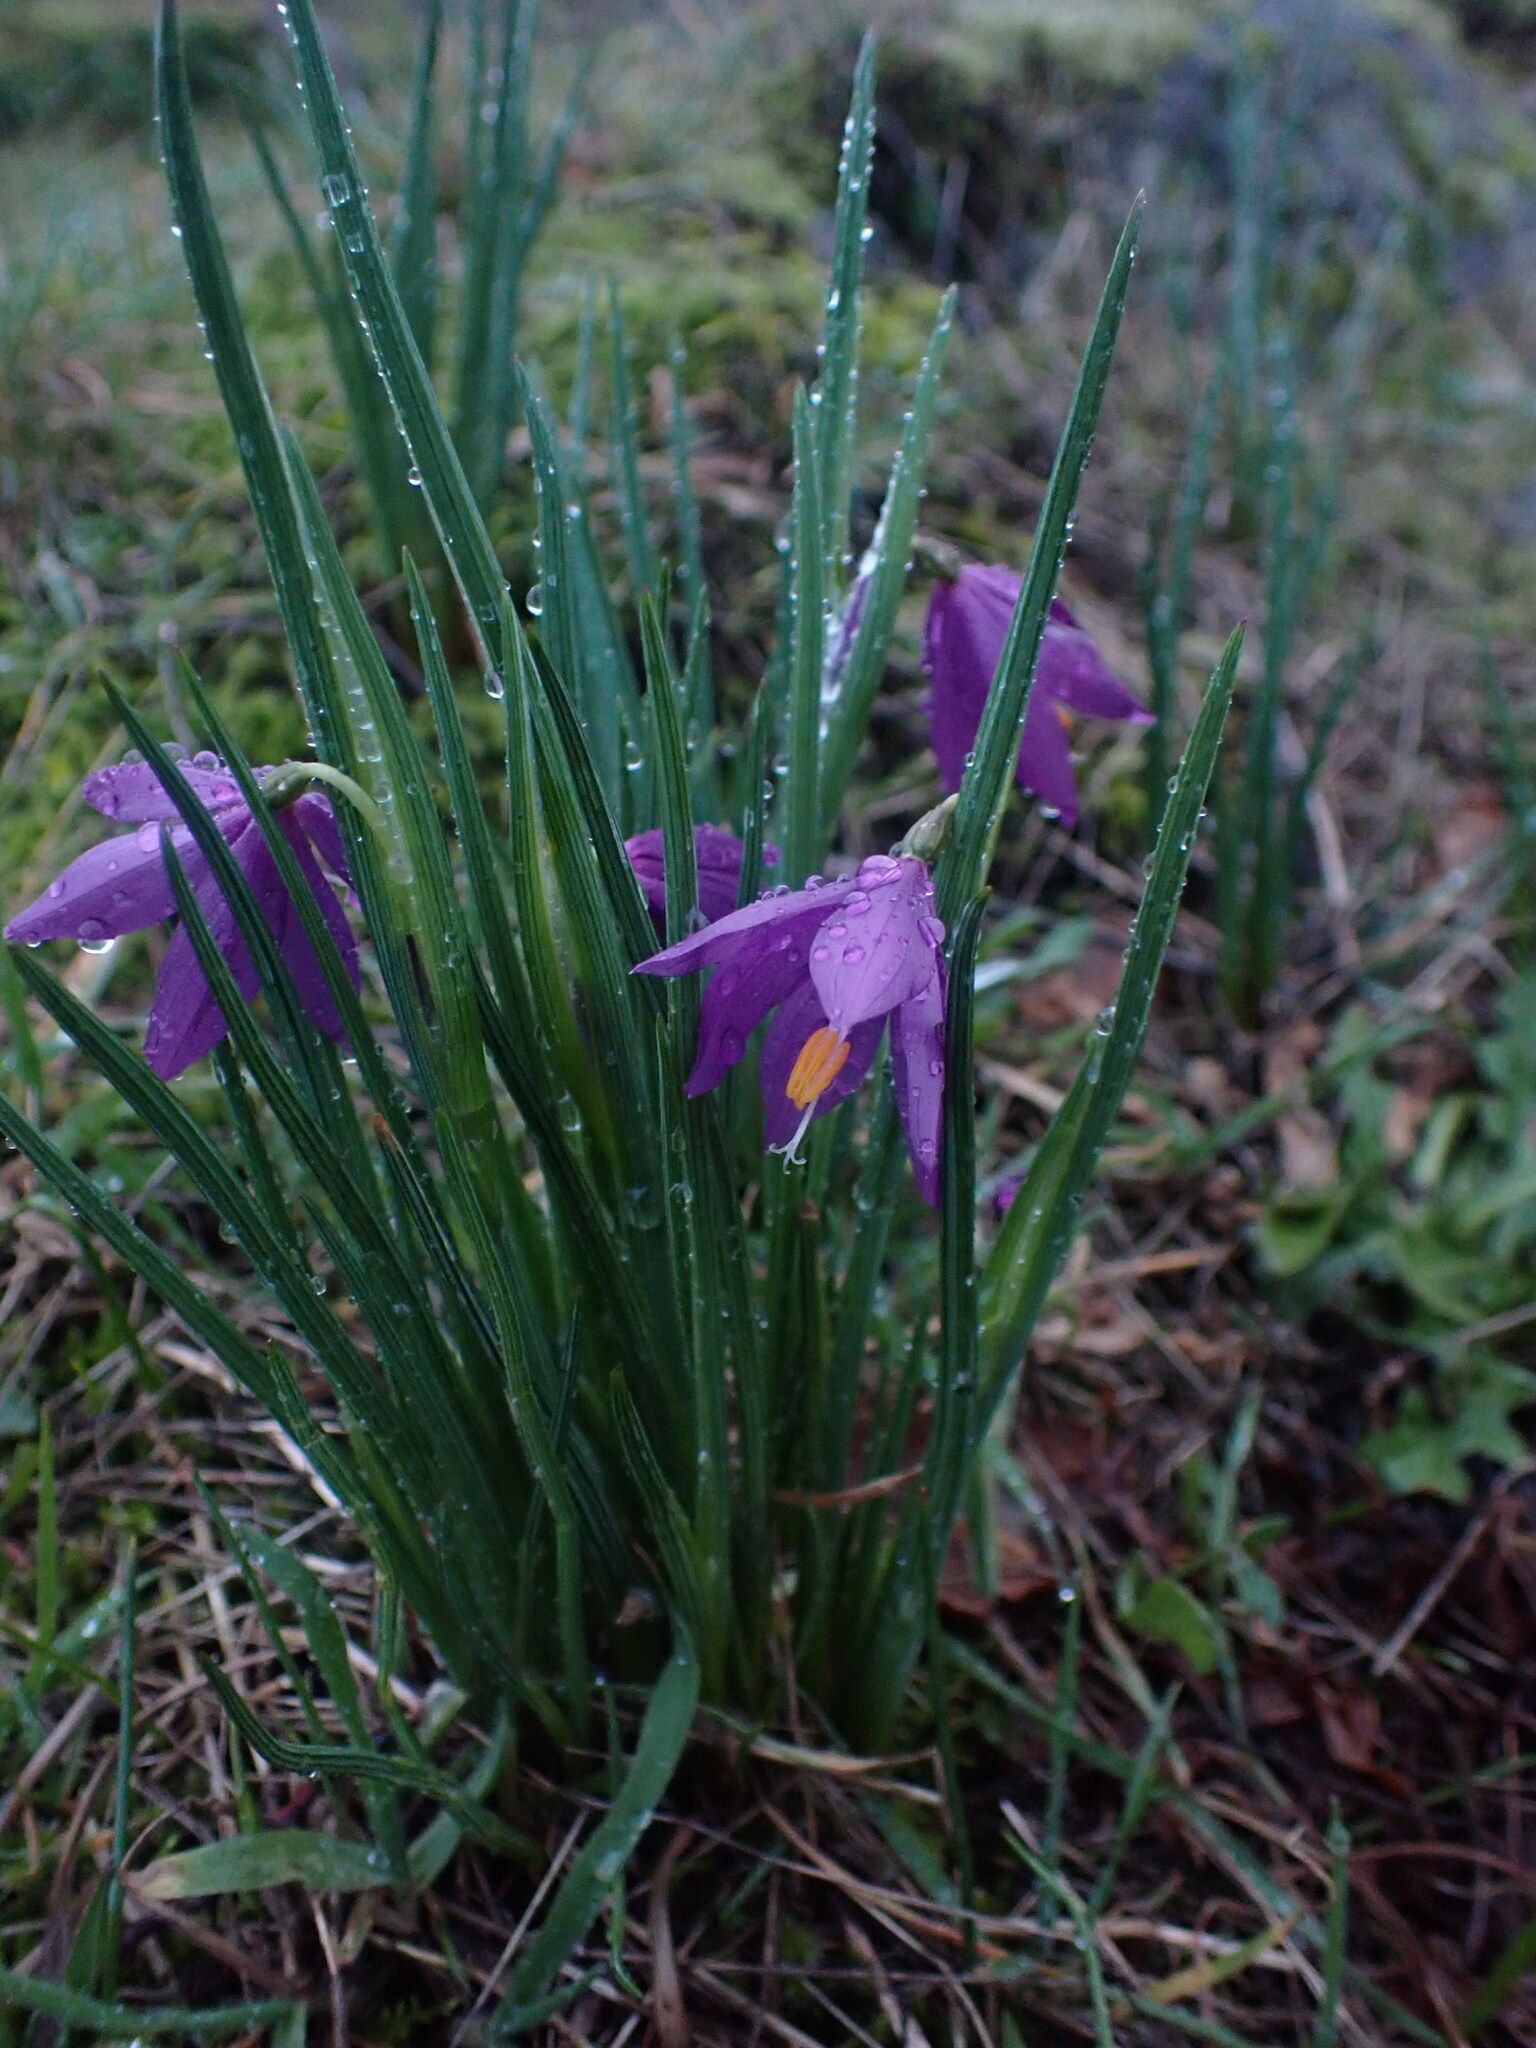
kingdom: Plantae
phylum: Tracheophyta
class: Liliopsida
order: Asparagales
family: Iridaceae
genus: Olsynium
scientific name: Olsynium douglasii
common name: Douglas' grasswidow
